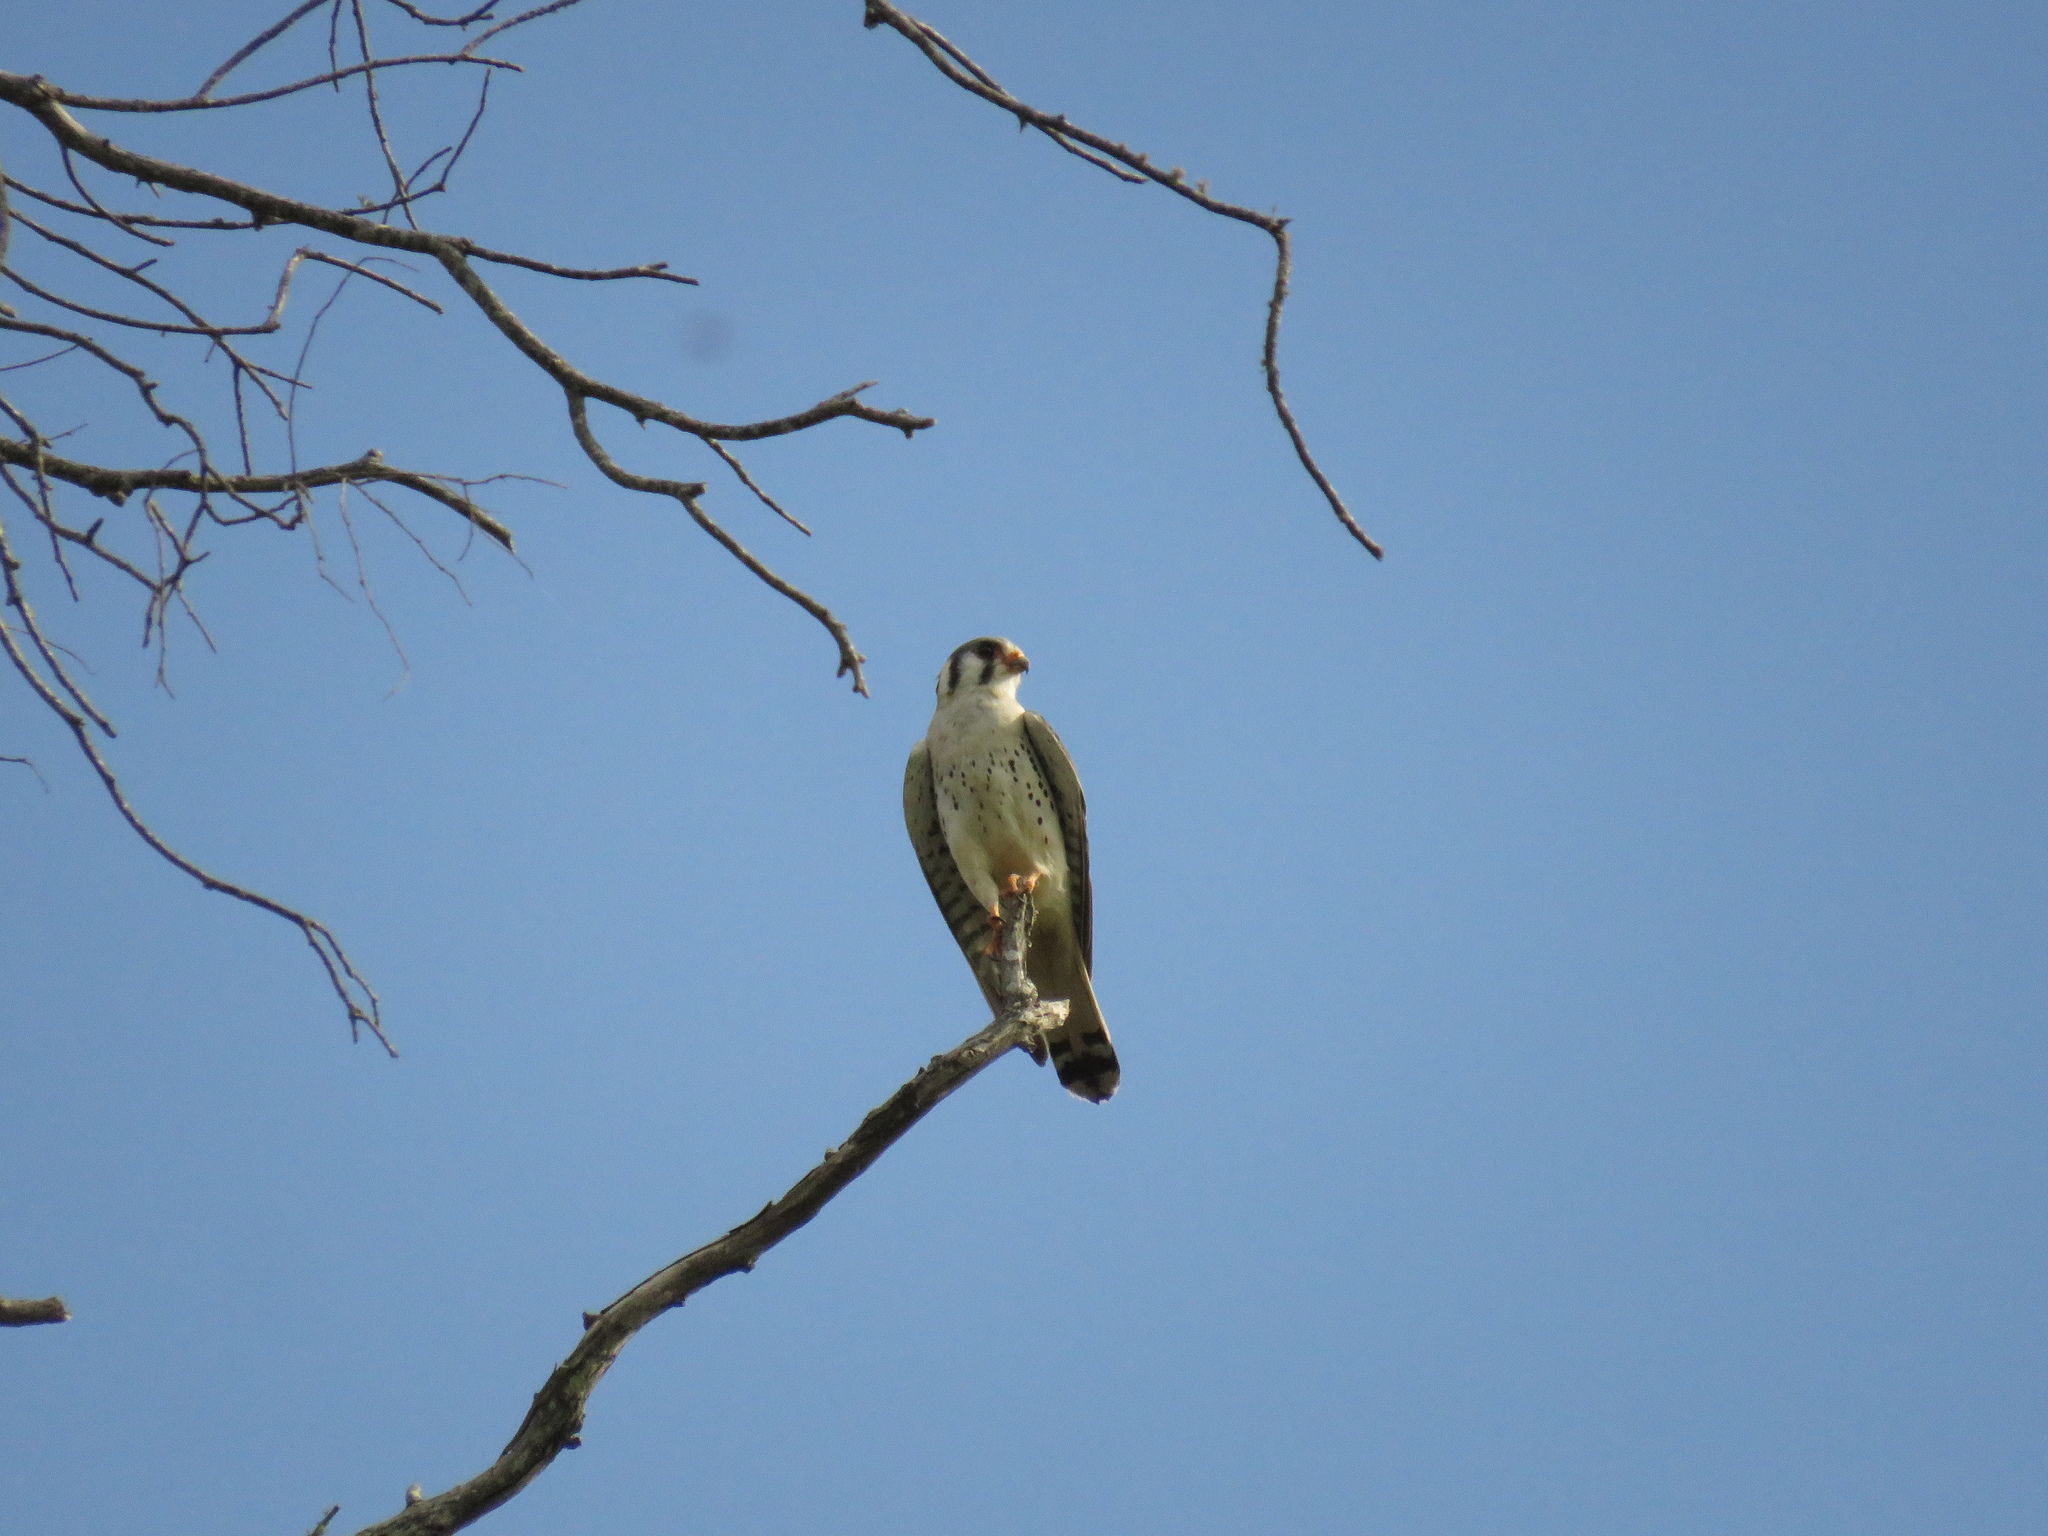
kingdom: Animalia
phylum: Chordata
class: Aves
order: Falconiformes
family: Falconidae
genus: Falco
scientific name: Falco sparverius
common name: American kestrel
